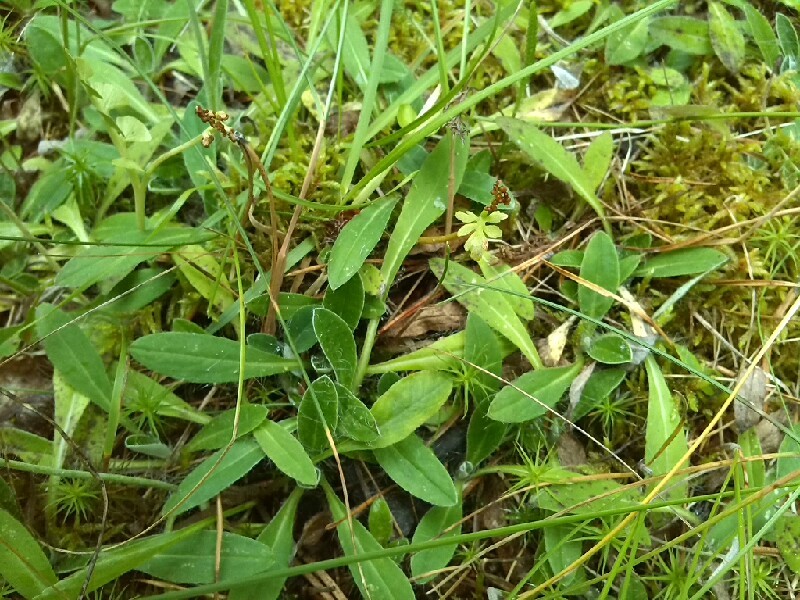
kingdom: Plantae
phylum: Tracheophyta
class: Polypodiopsida
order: Ophioglossales
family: Ophioglossaceae
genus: Botrychium
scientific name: Botrychium matricariifolium
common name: Branched moonwort
